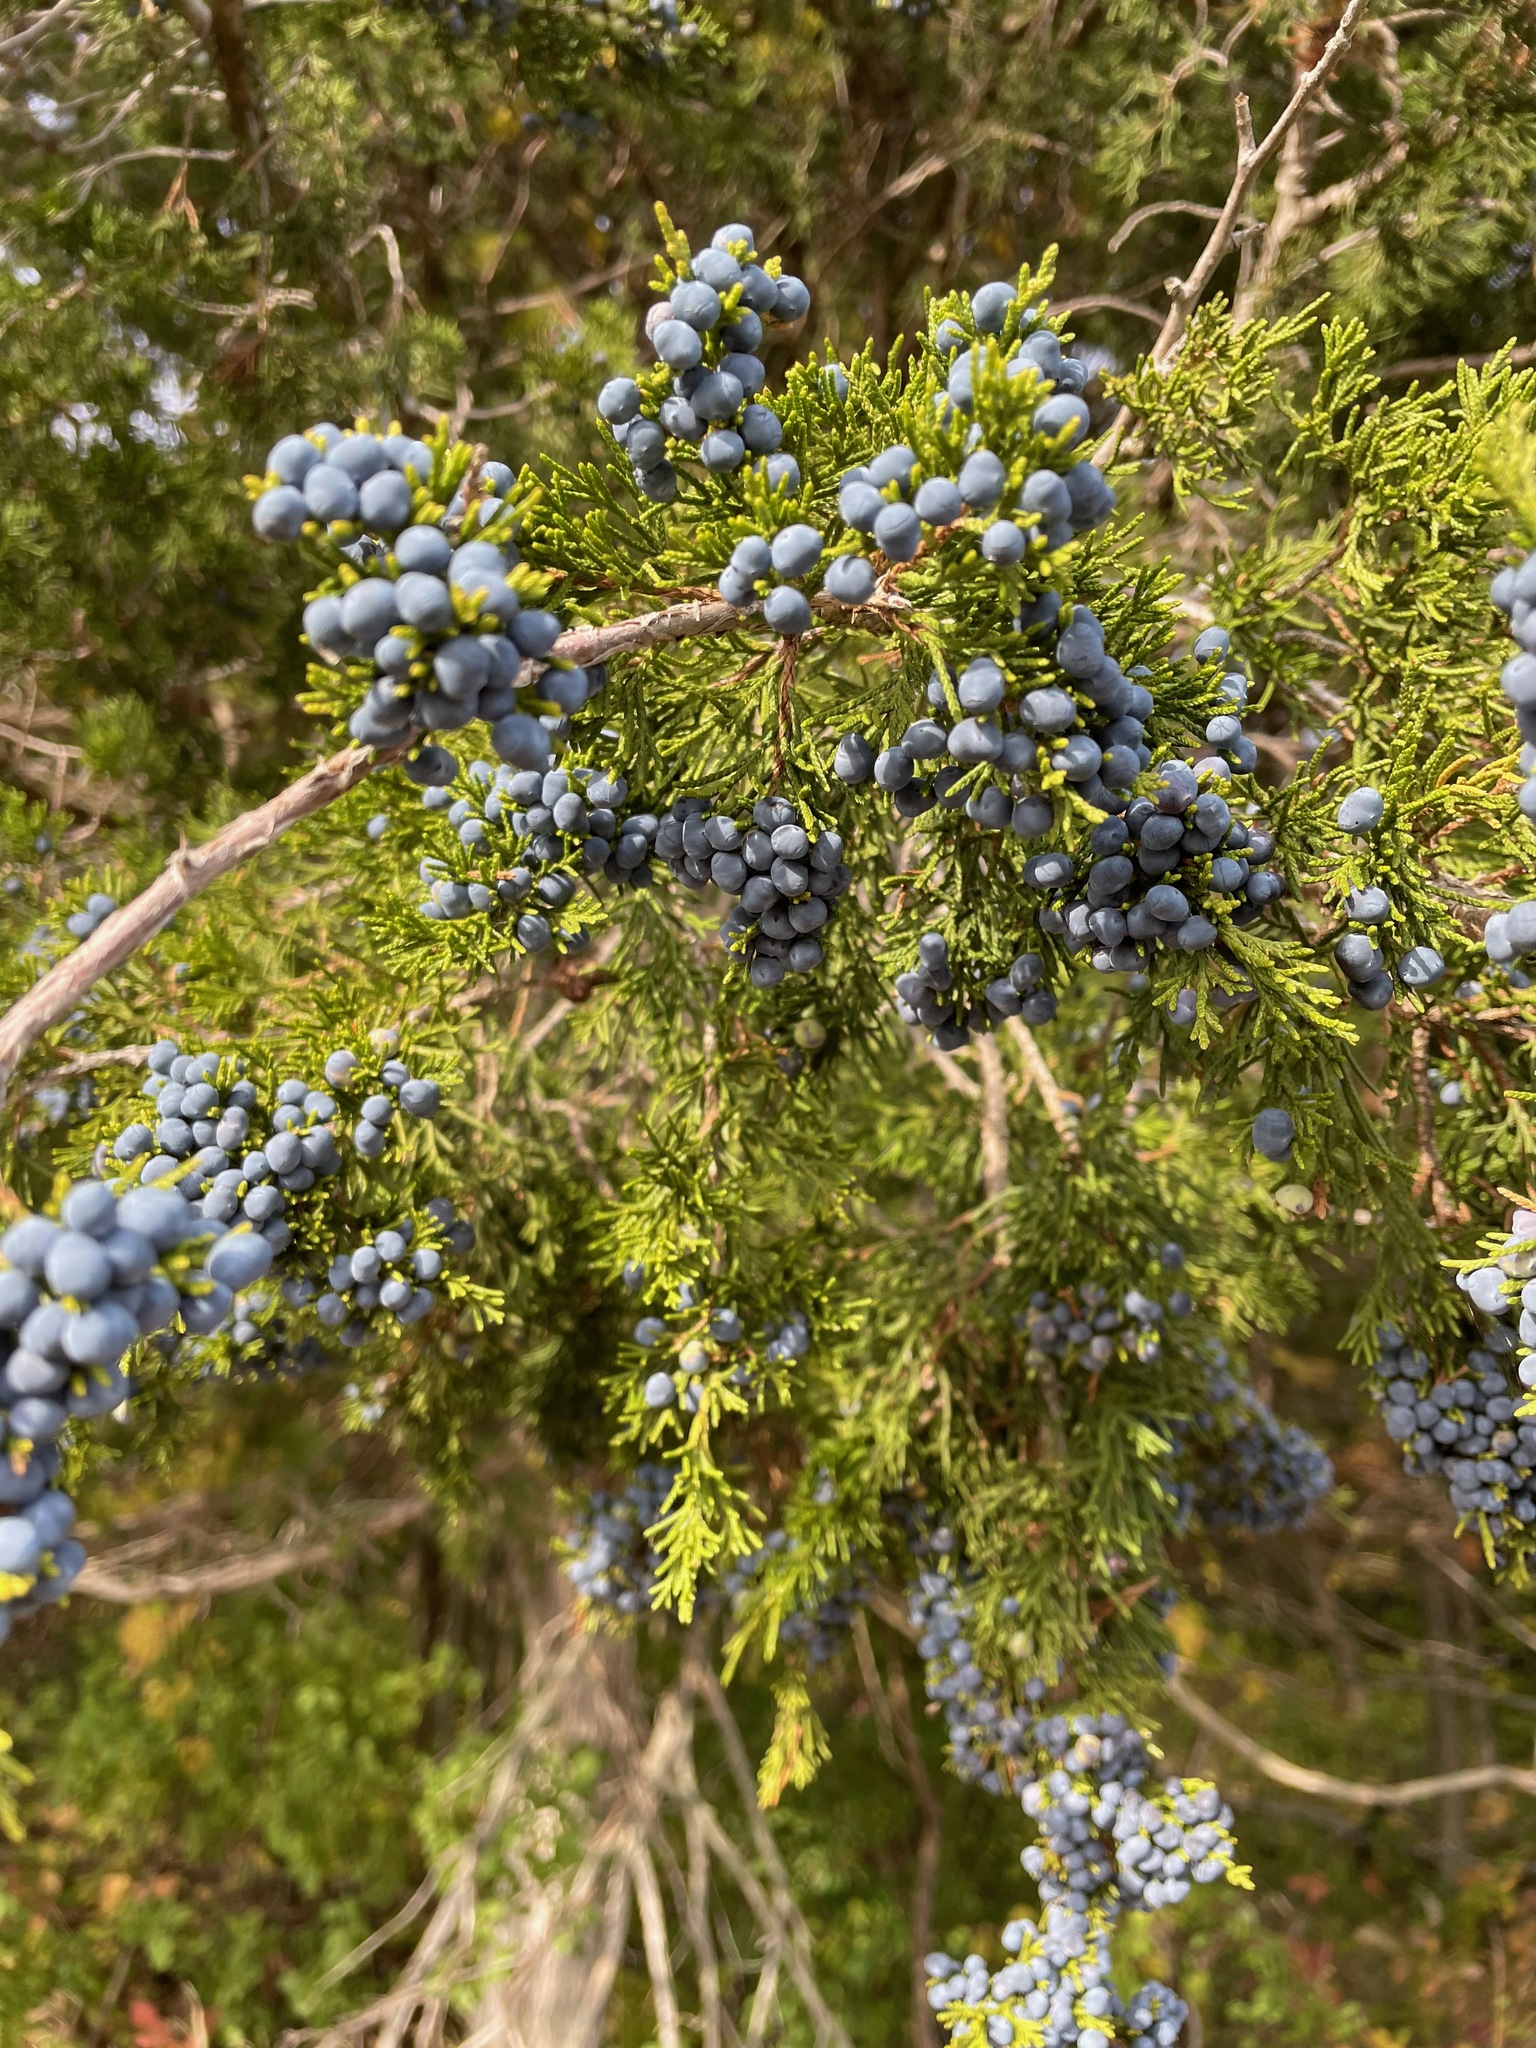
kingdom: Plantae
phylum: Tracheophyta
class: Pinopsida
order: Pinales
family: Cupressaceae
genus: Juniperus
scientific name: Juniperus virginiana
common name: Red juniper
